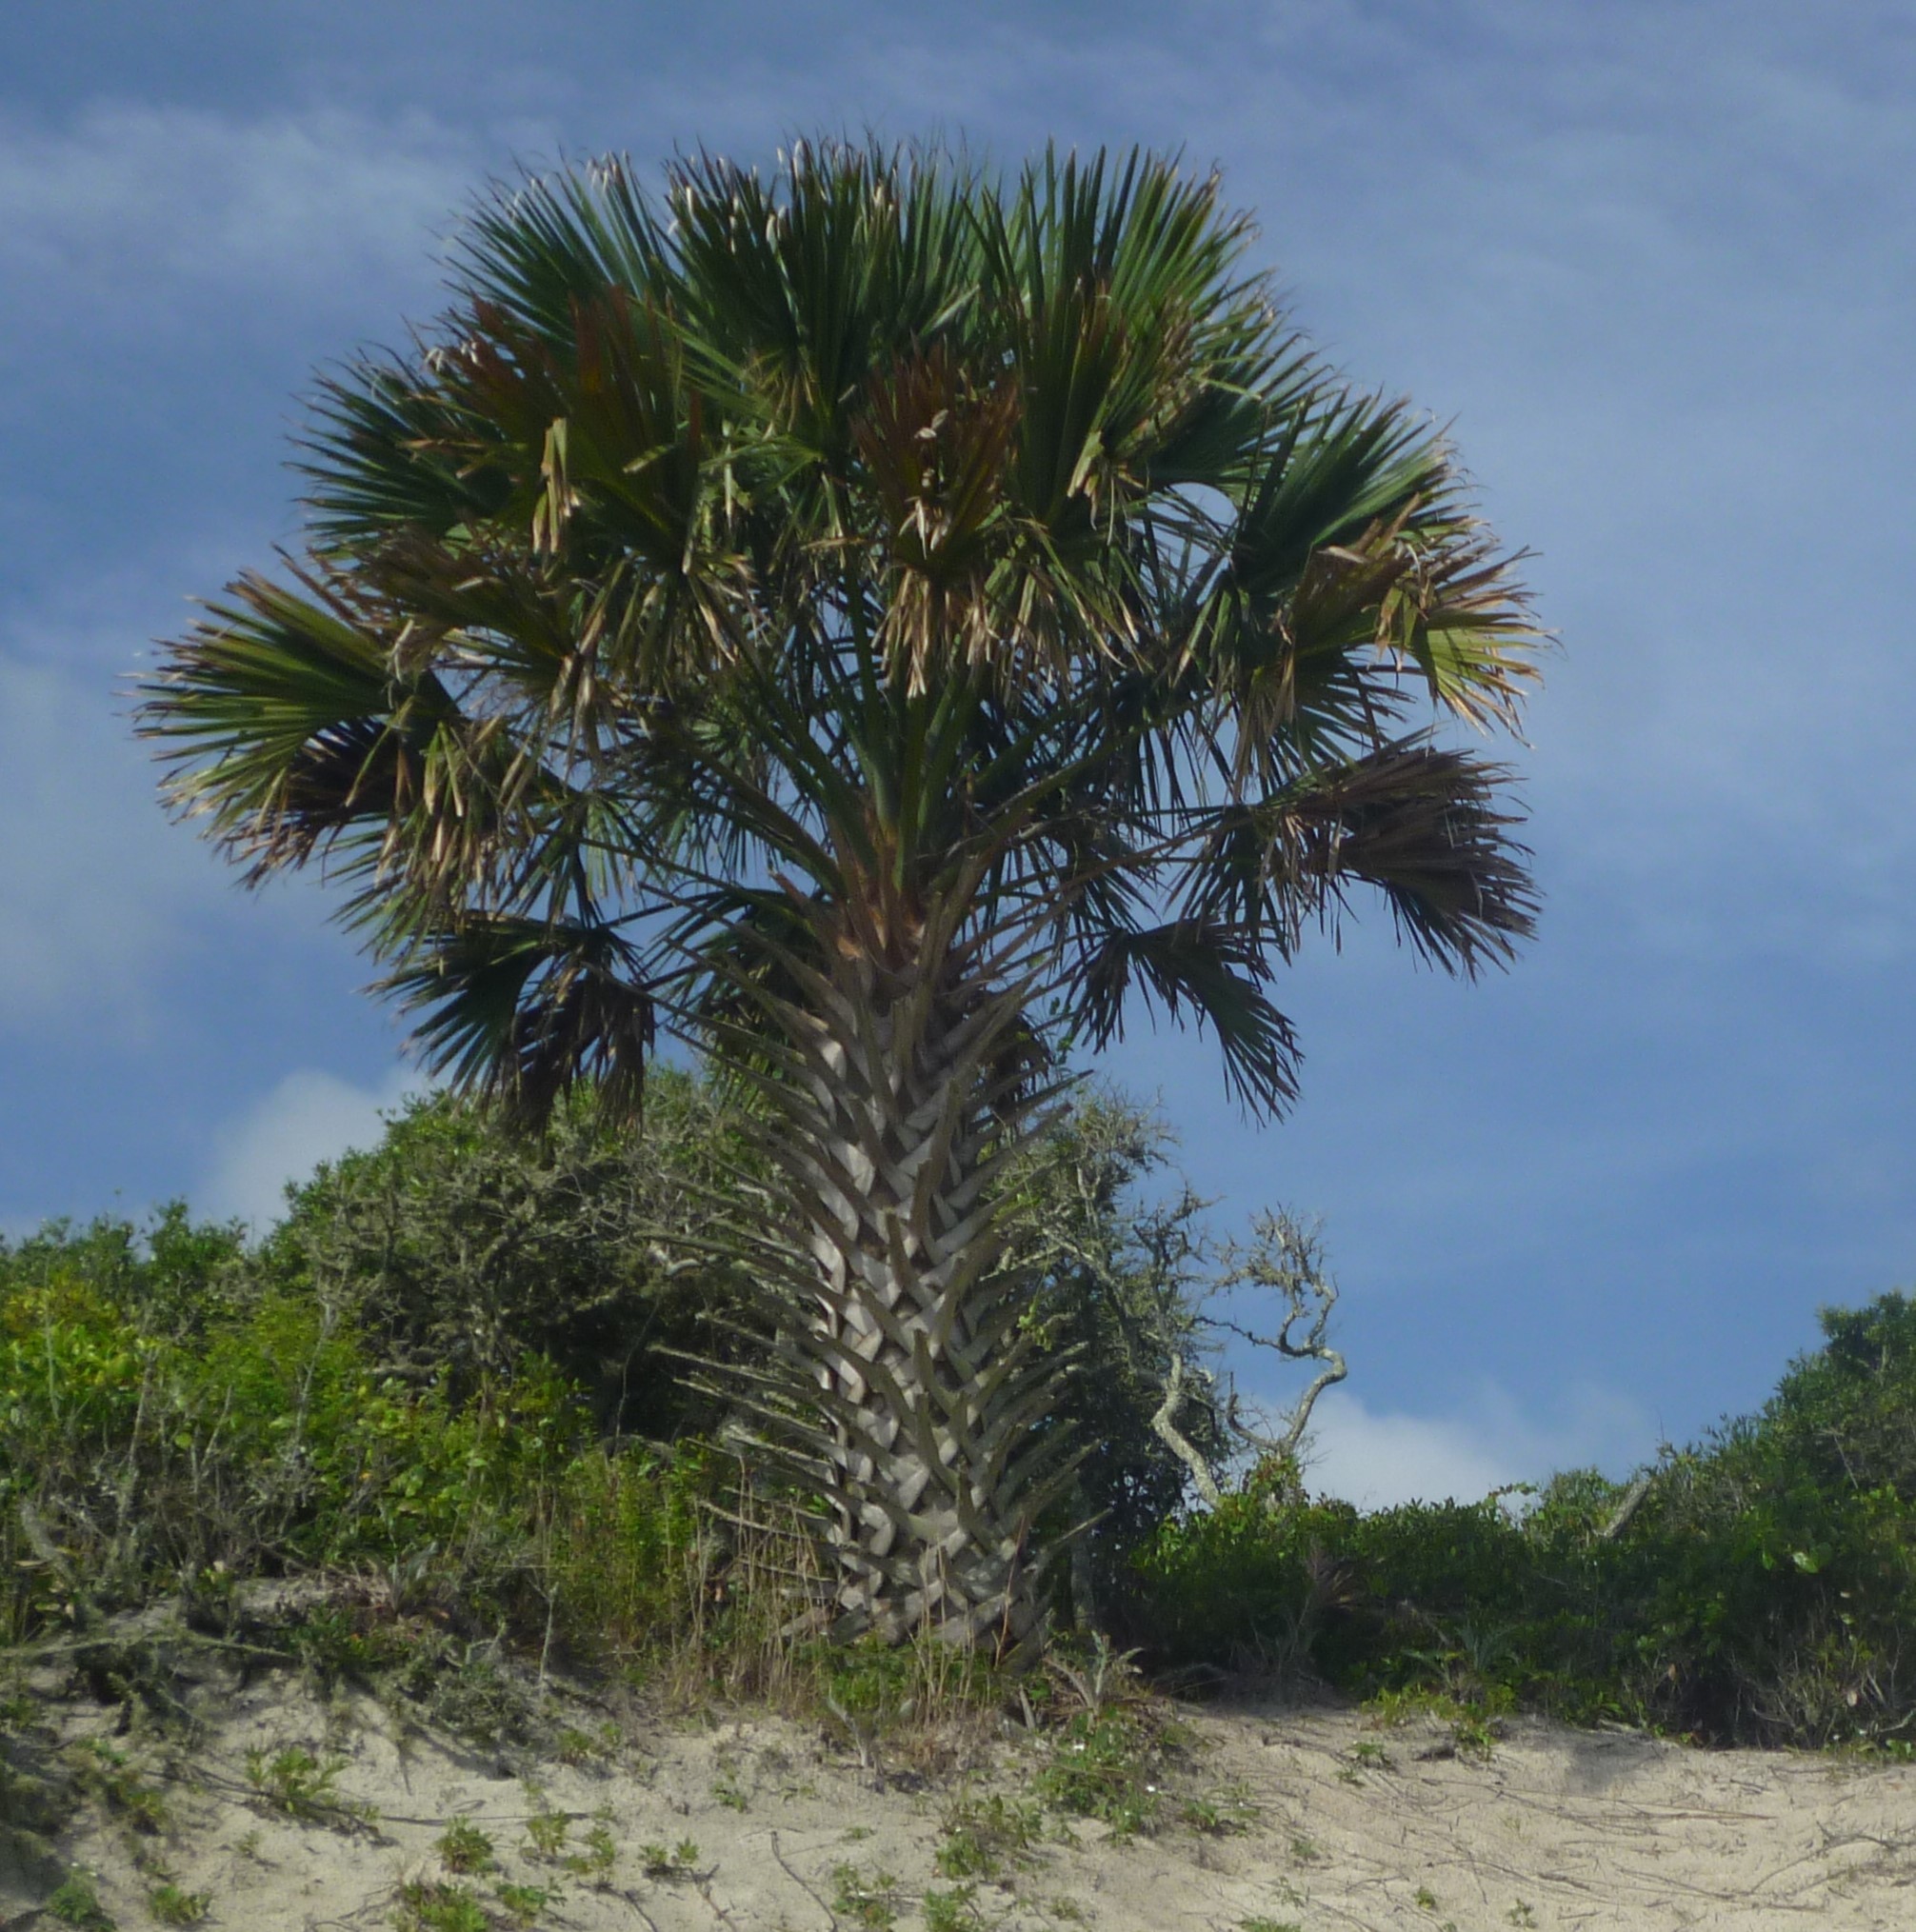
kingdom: Plantae
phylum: Tracheophyta
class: Liliopsida
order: Arecales
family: Arecaceae
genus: Sabal
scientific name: Sabal palmetto
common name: Blue palmetto
